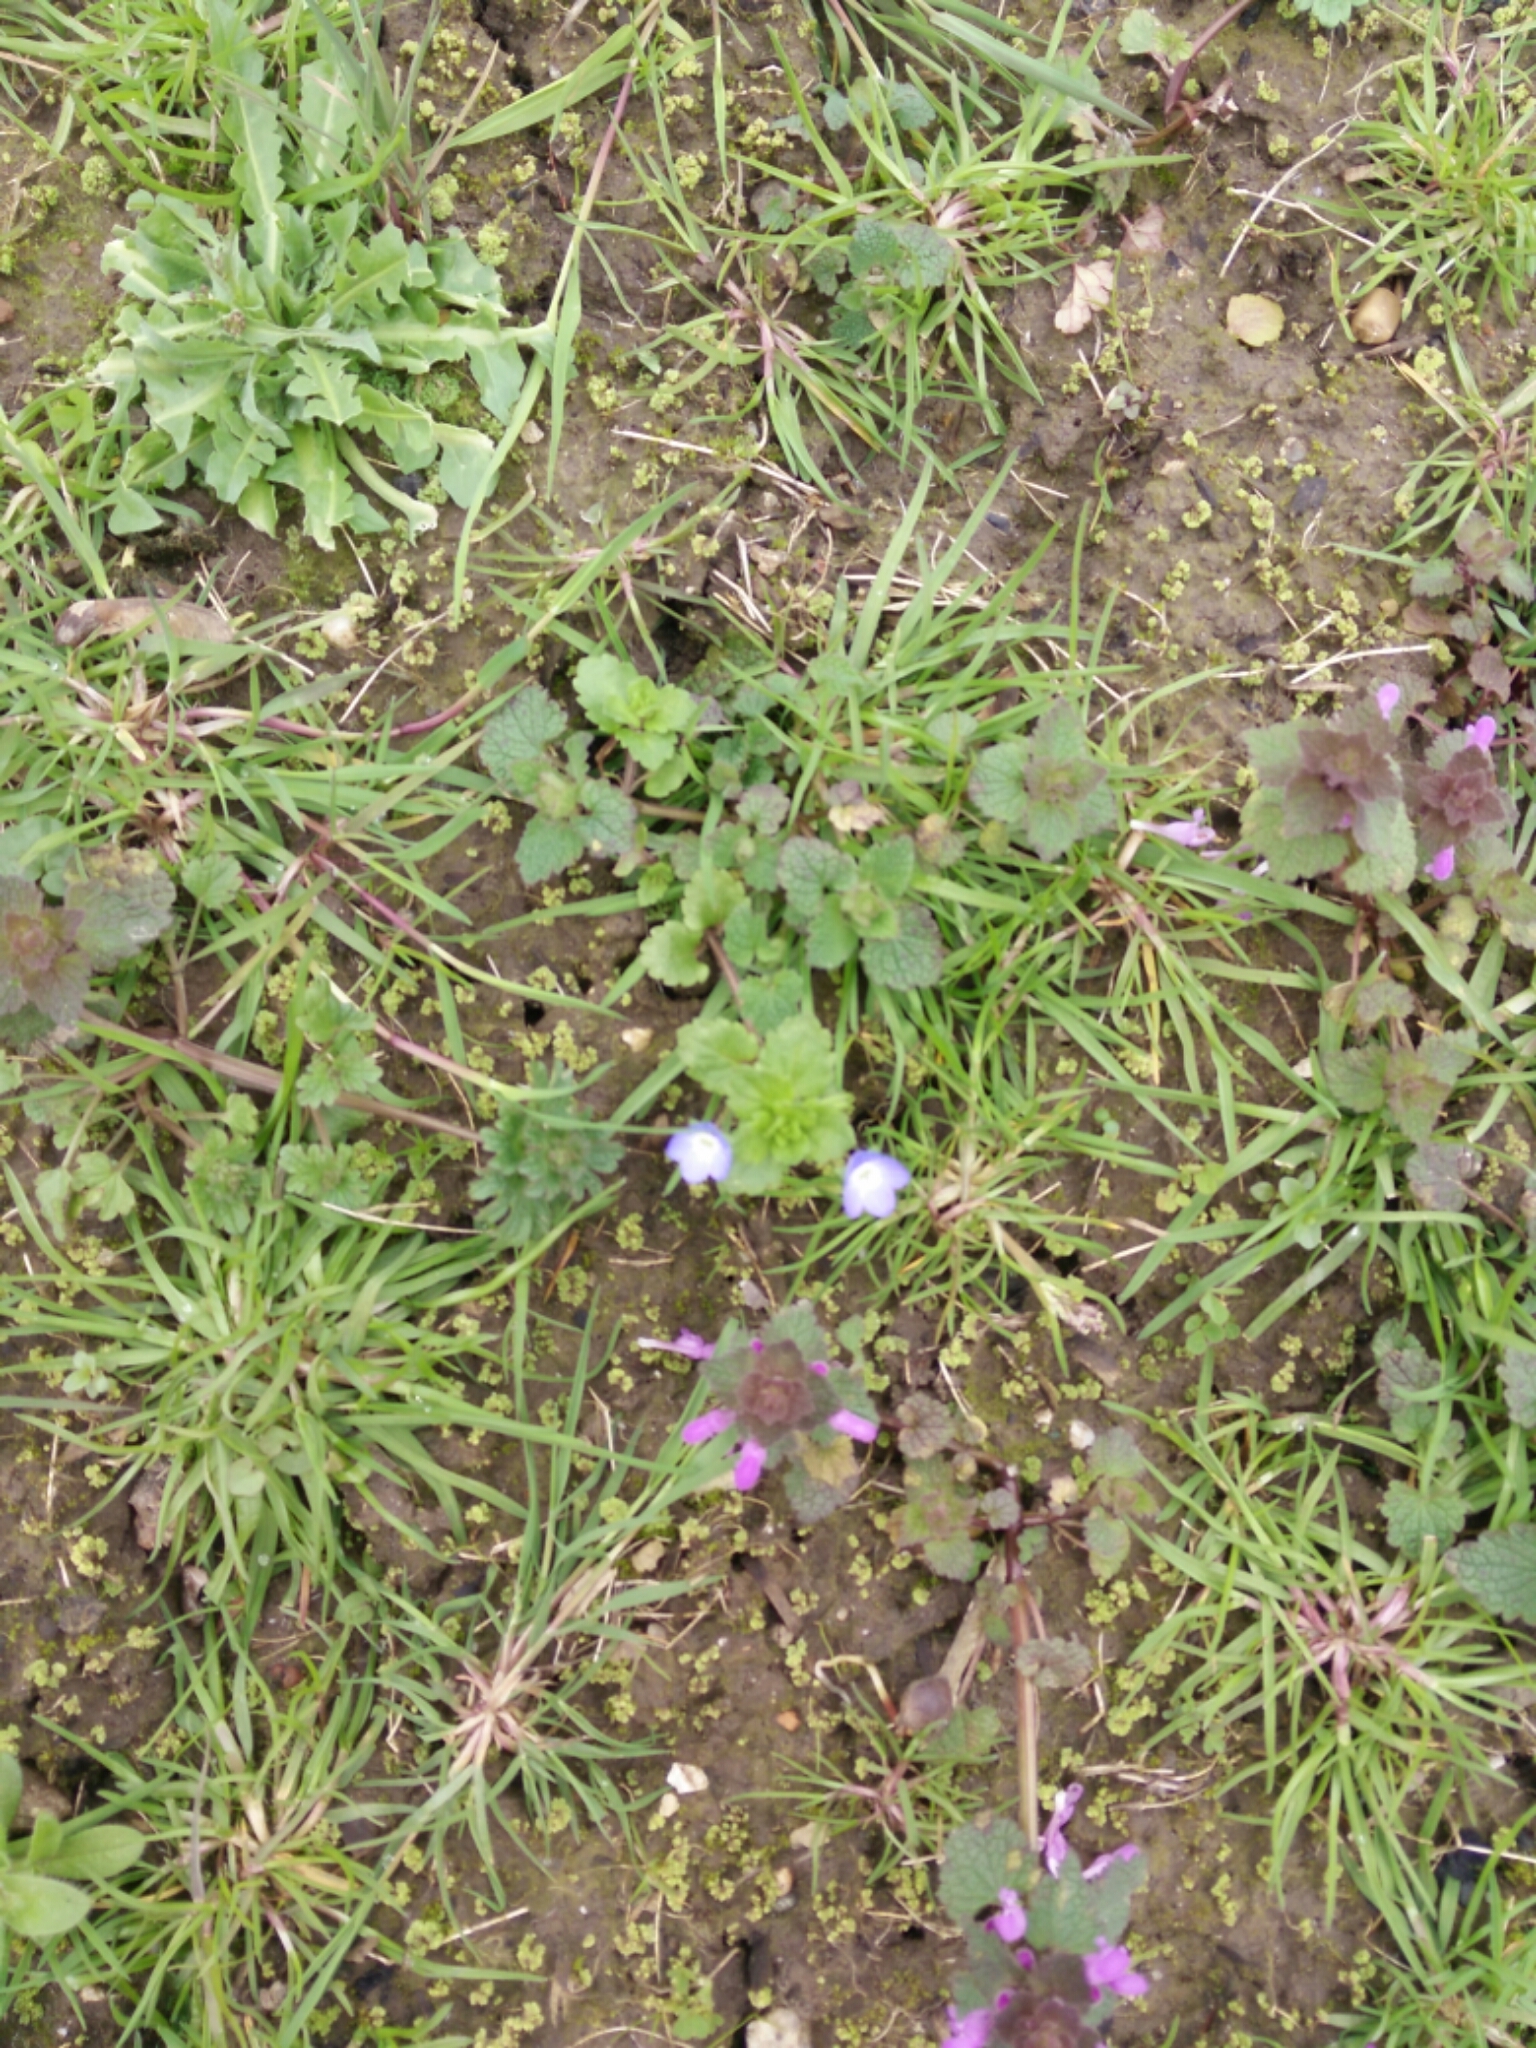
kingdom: Plantae
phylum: Tracheophyta
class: Magnoliopsida
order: Lamiales
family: Plantaginaceae
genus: Veronica
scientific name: Veronica persica
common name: Common field-speedwell
